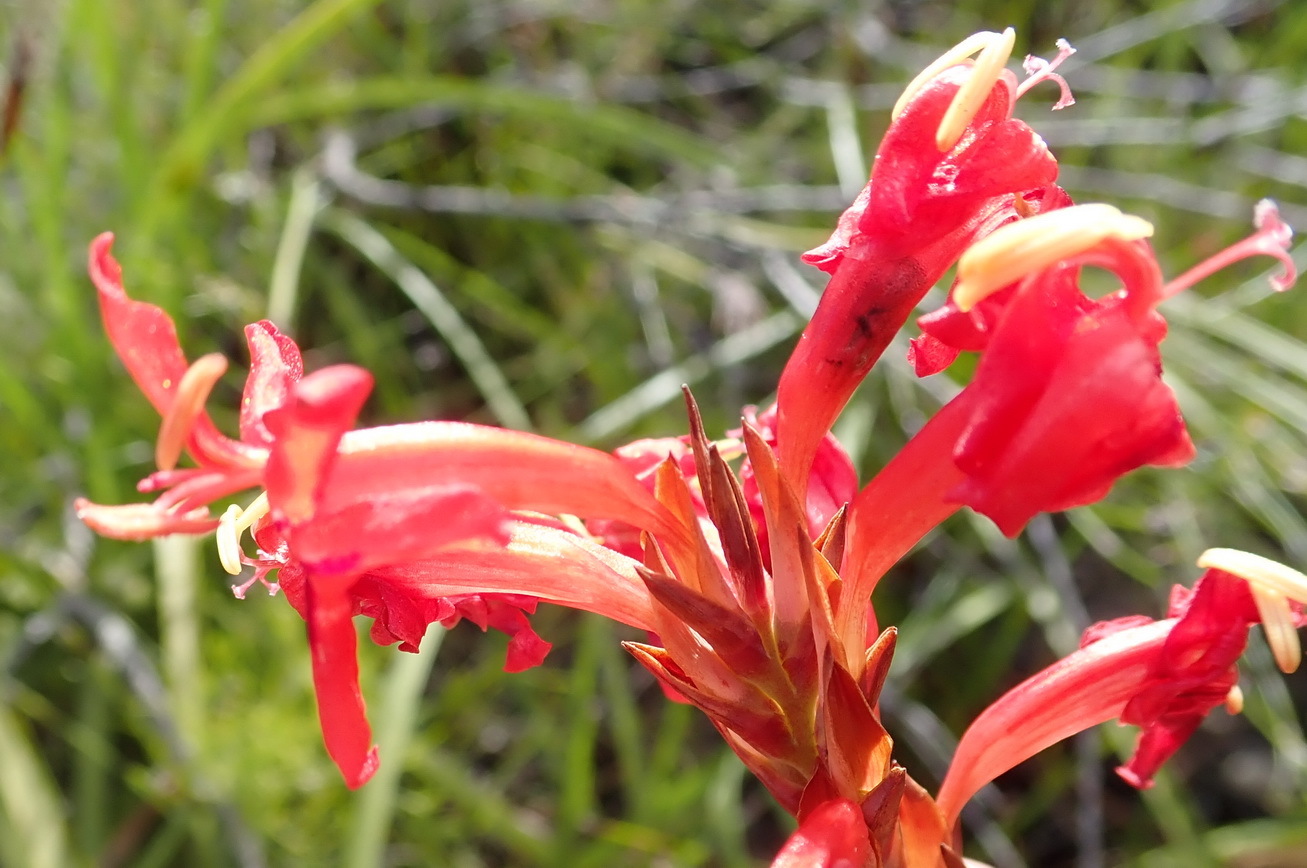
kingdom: Plantae
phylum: Tracheophyta
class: Liliopsida
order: Asparagales
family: Iridaceae
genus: Tritoniopsis
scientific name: Tritoniopsis triticea
